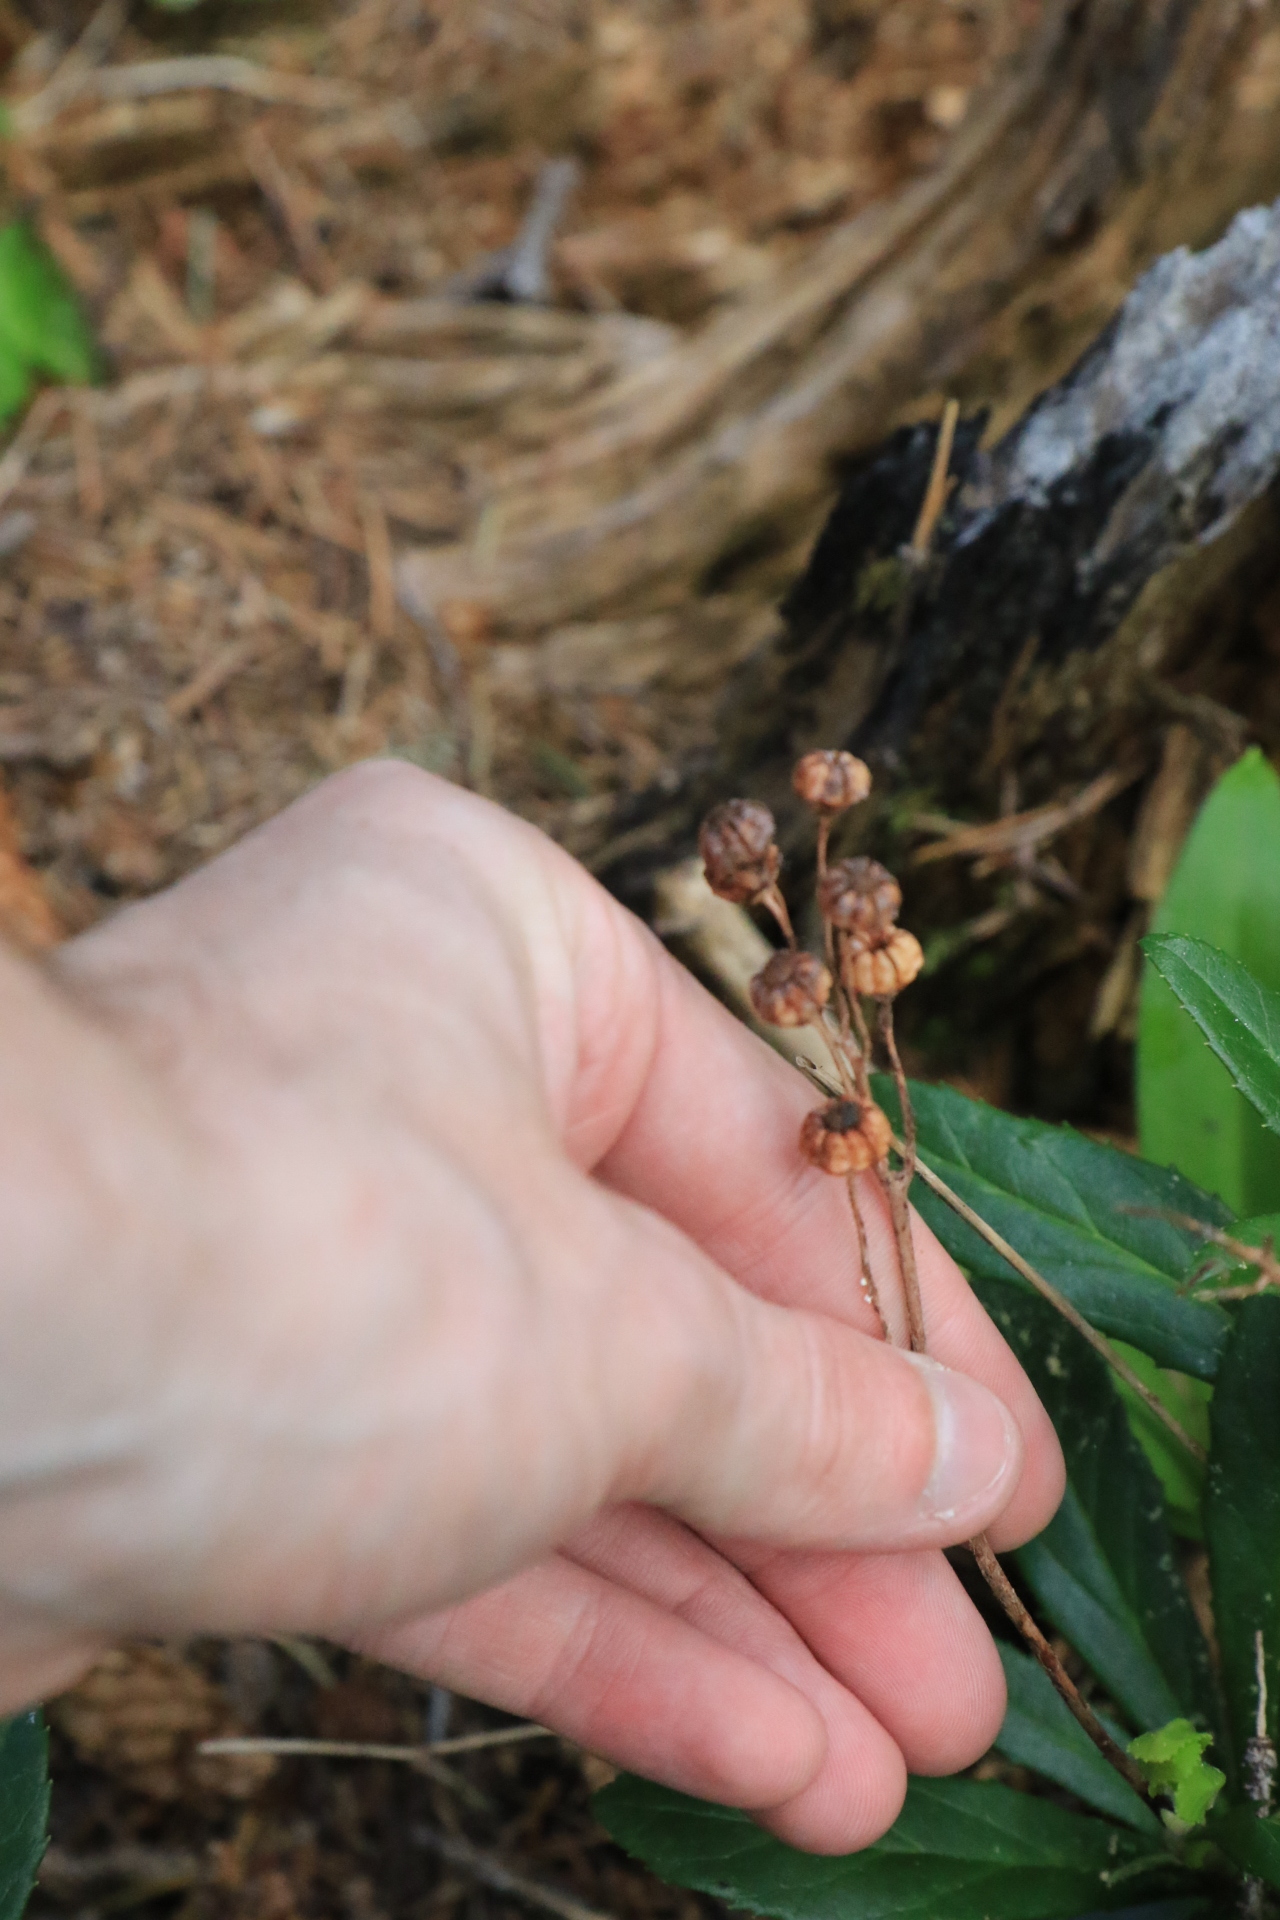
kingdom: Plantae
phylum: Tracheophyta
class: Magnoliopsida
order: Ericales
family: Ericaceae
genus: Chimaphila
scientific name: Chimaphila umbellata
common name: Pipsissewa
